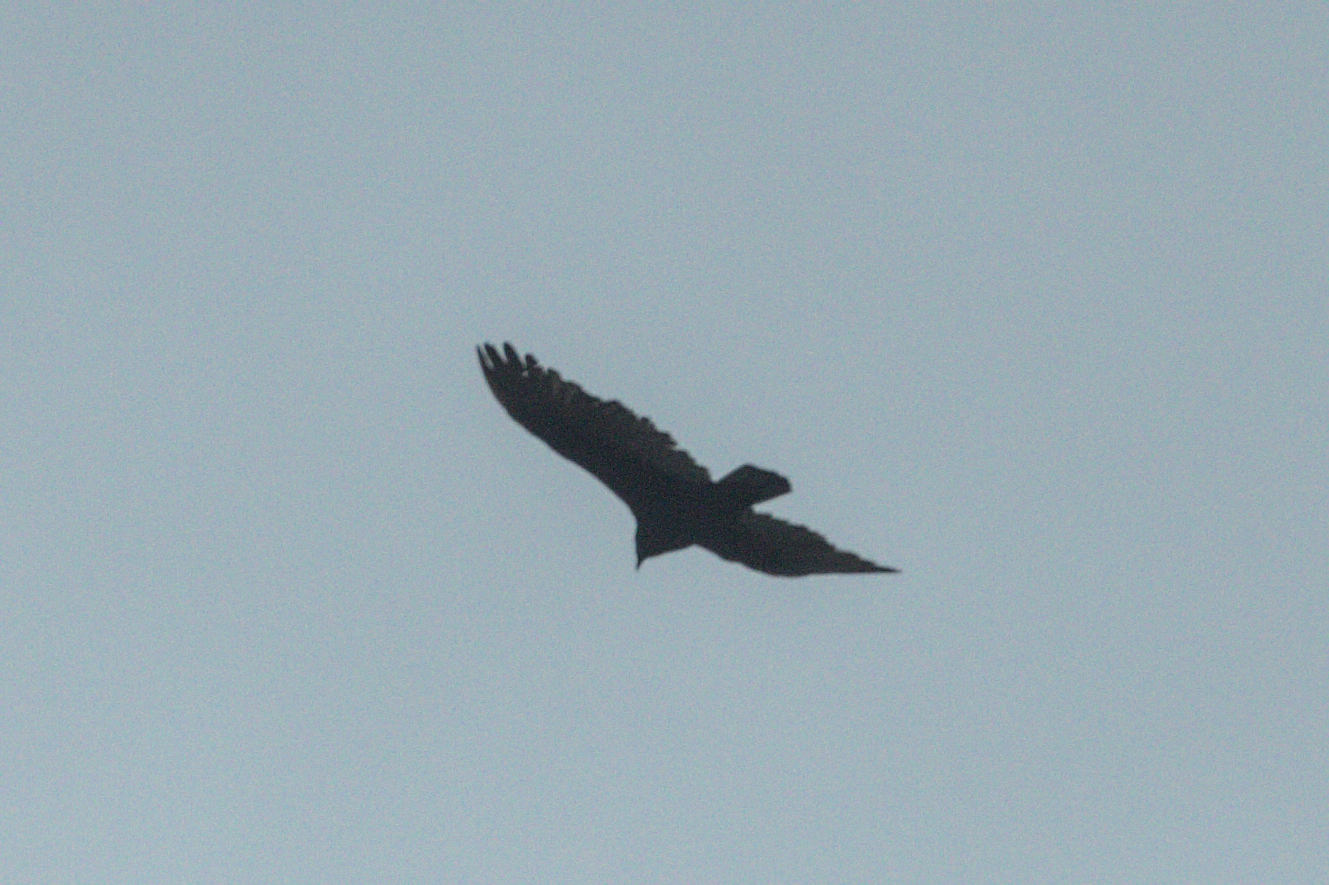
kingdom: Animalia
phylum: Chordata
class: Aves
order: Accipitriformes
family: Cathartidae
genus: Cathartes
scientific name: Cathartes aura
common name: Turkey vulture
